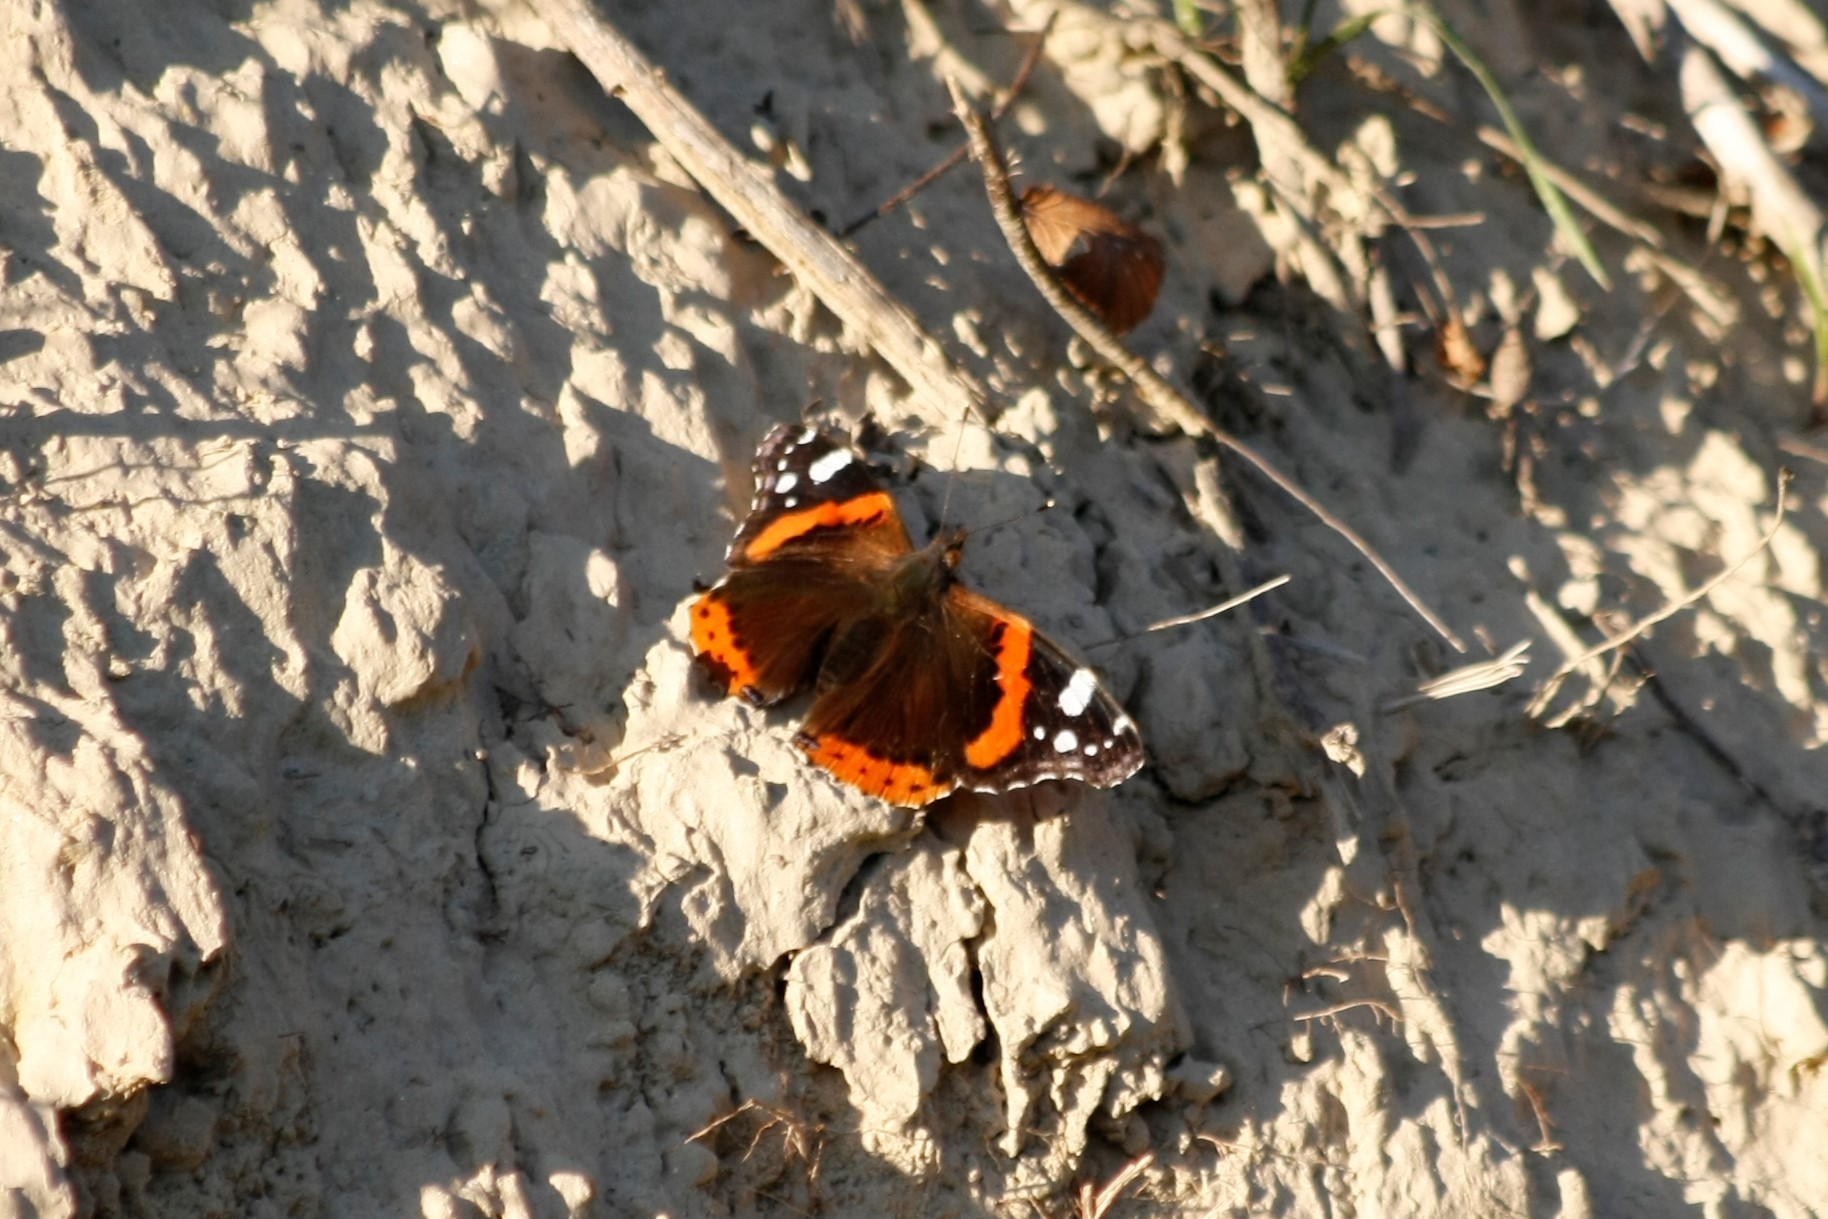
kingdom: Animalia
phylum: Arthropoda
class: Insecta
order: Lepidoptera
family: Nymphalidae
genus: Vanessa
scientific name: Vanessa atalanta
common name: Red admiral
